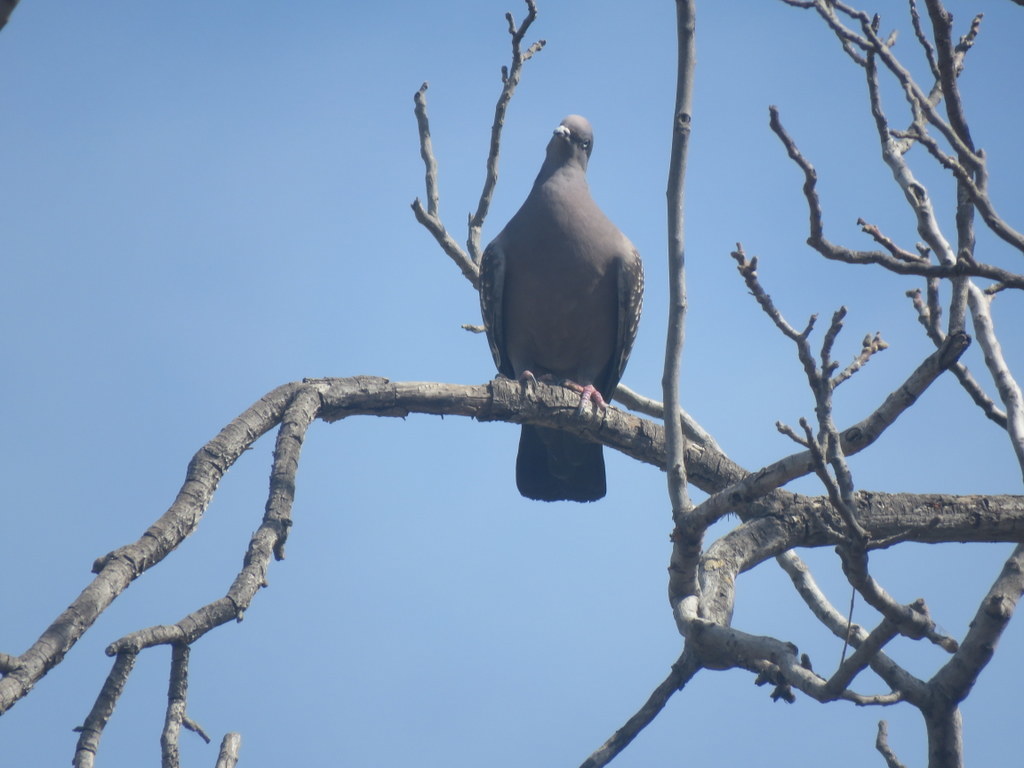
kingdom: Animalia
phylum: Chordata
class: Aves
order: Columbiformes
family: Columbidae
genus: Patagioenas
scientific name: Patagioenas maculosa
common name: Spot-winged pigeon
